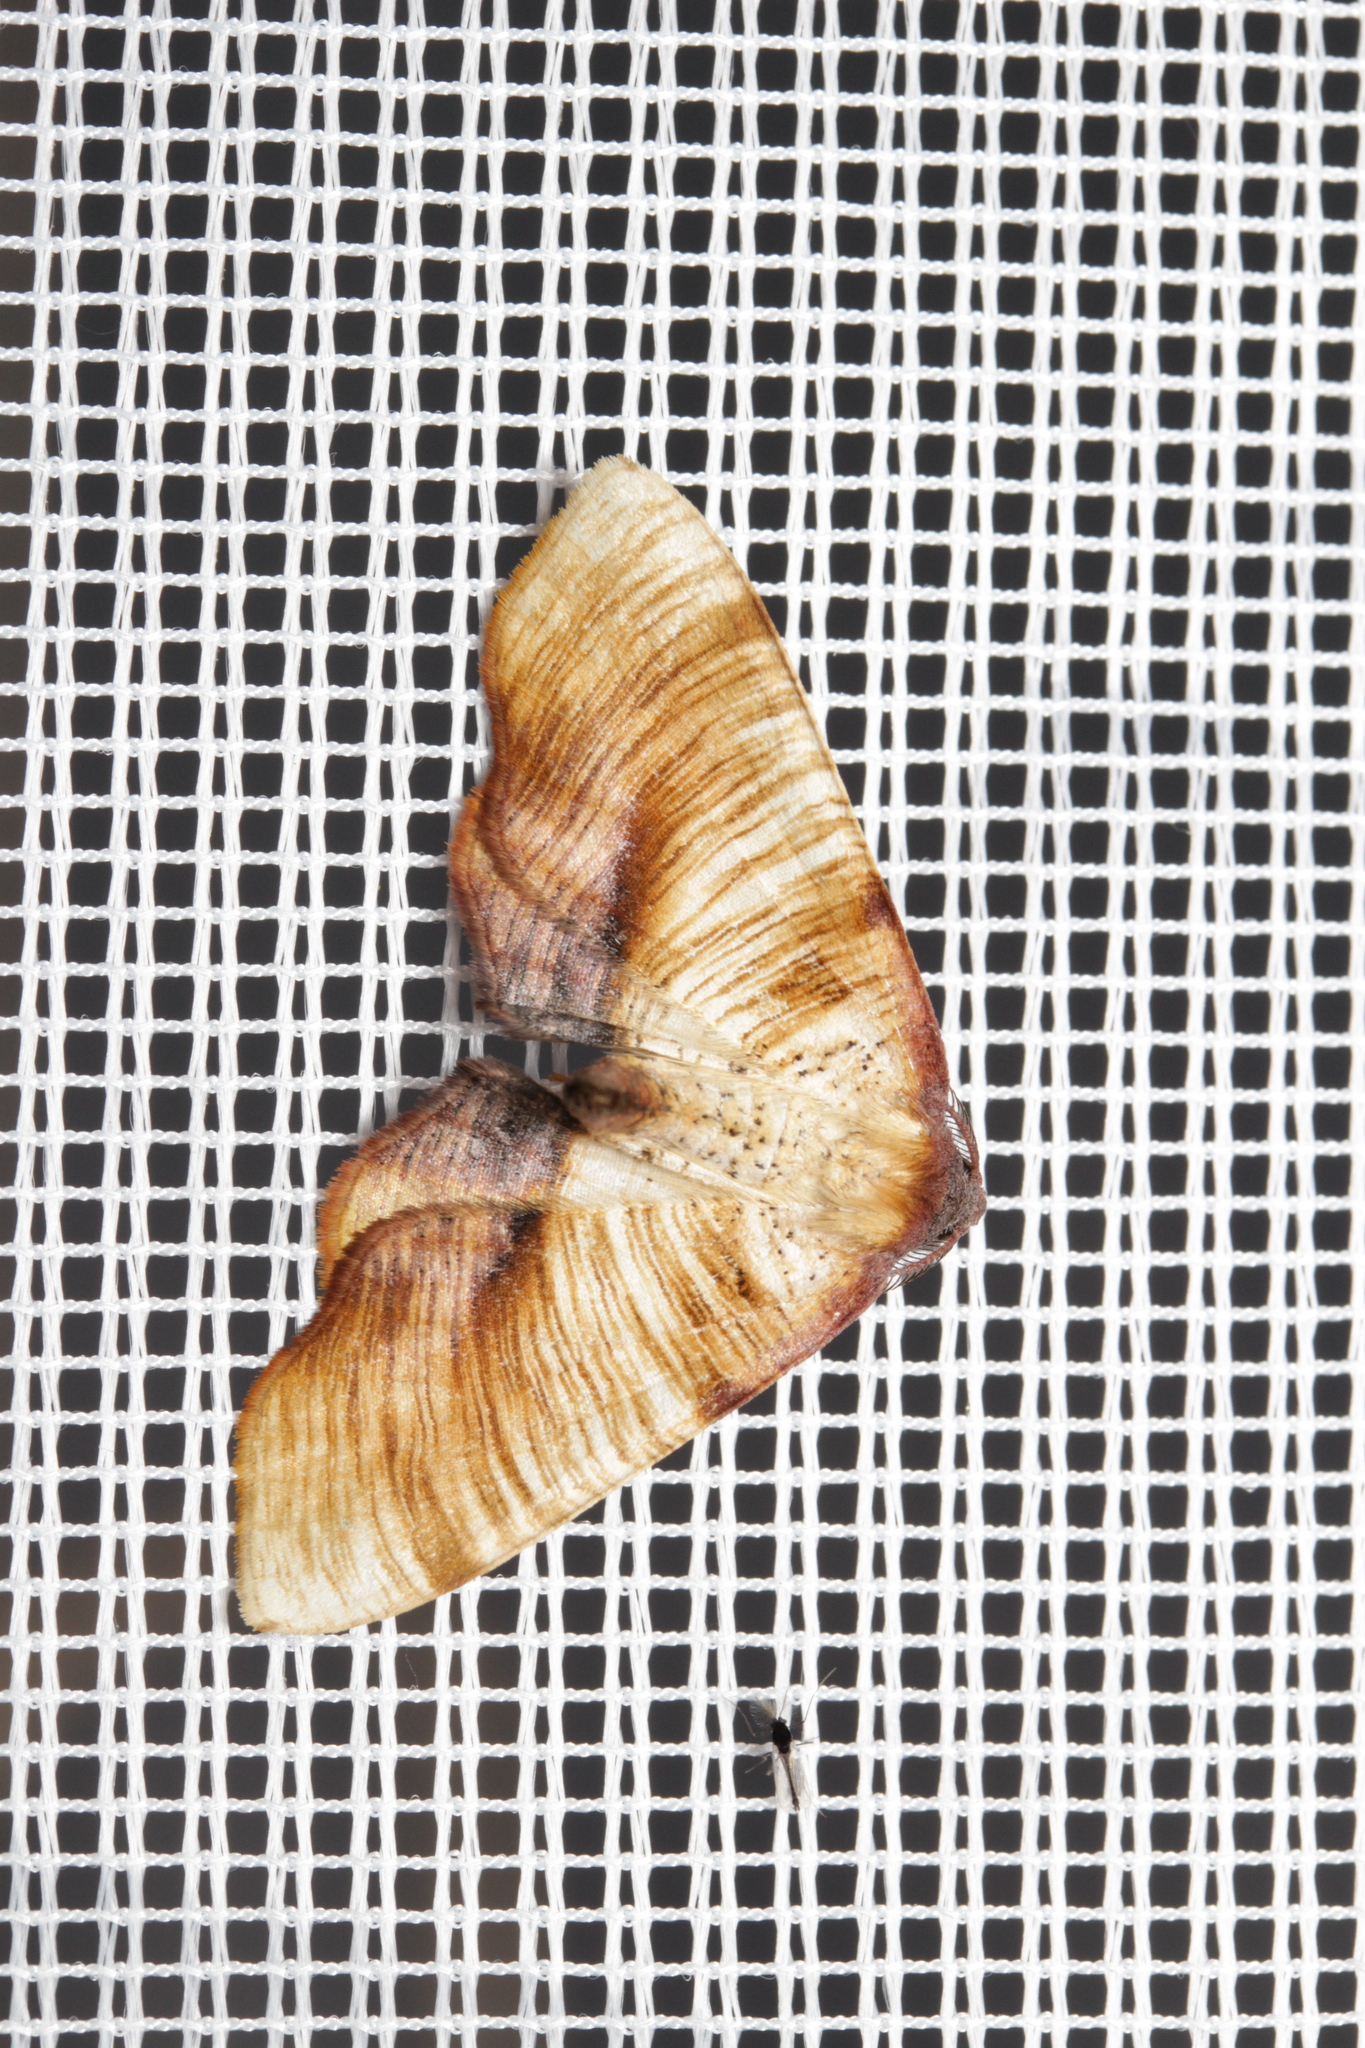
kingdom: Animalia
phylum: Arthropoda
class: Insecta
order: Lepidoptera
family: Geometridae
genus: Plagodis
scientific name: Plagodis dolabraria
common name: Scorched wing
